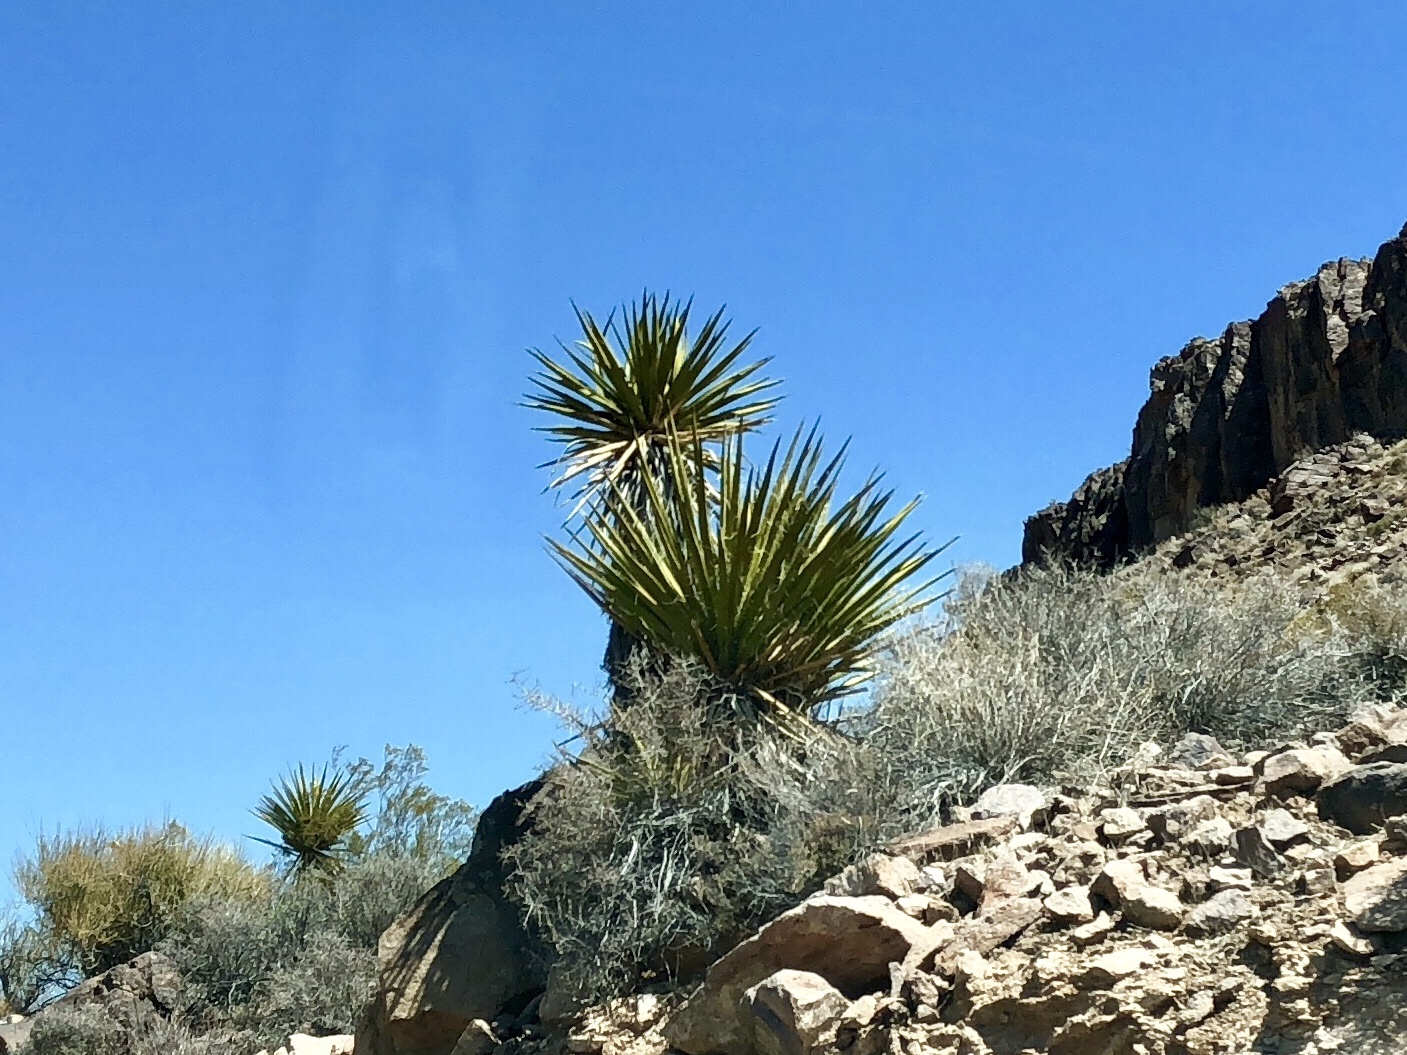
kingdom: Plantae
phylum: Tracheophyta
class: Liliopsida
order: Asparagales
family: Asparagaceae
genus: Yucca
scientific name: Yucca schidigera
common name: Mojave yucca
